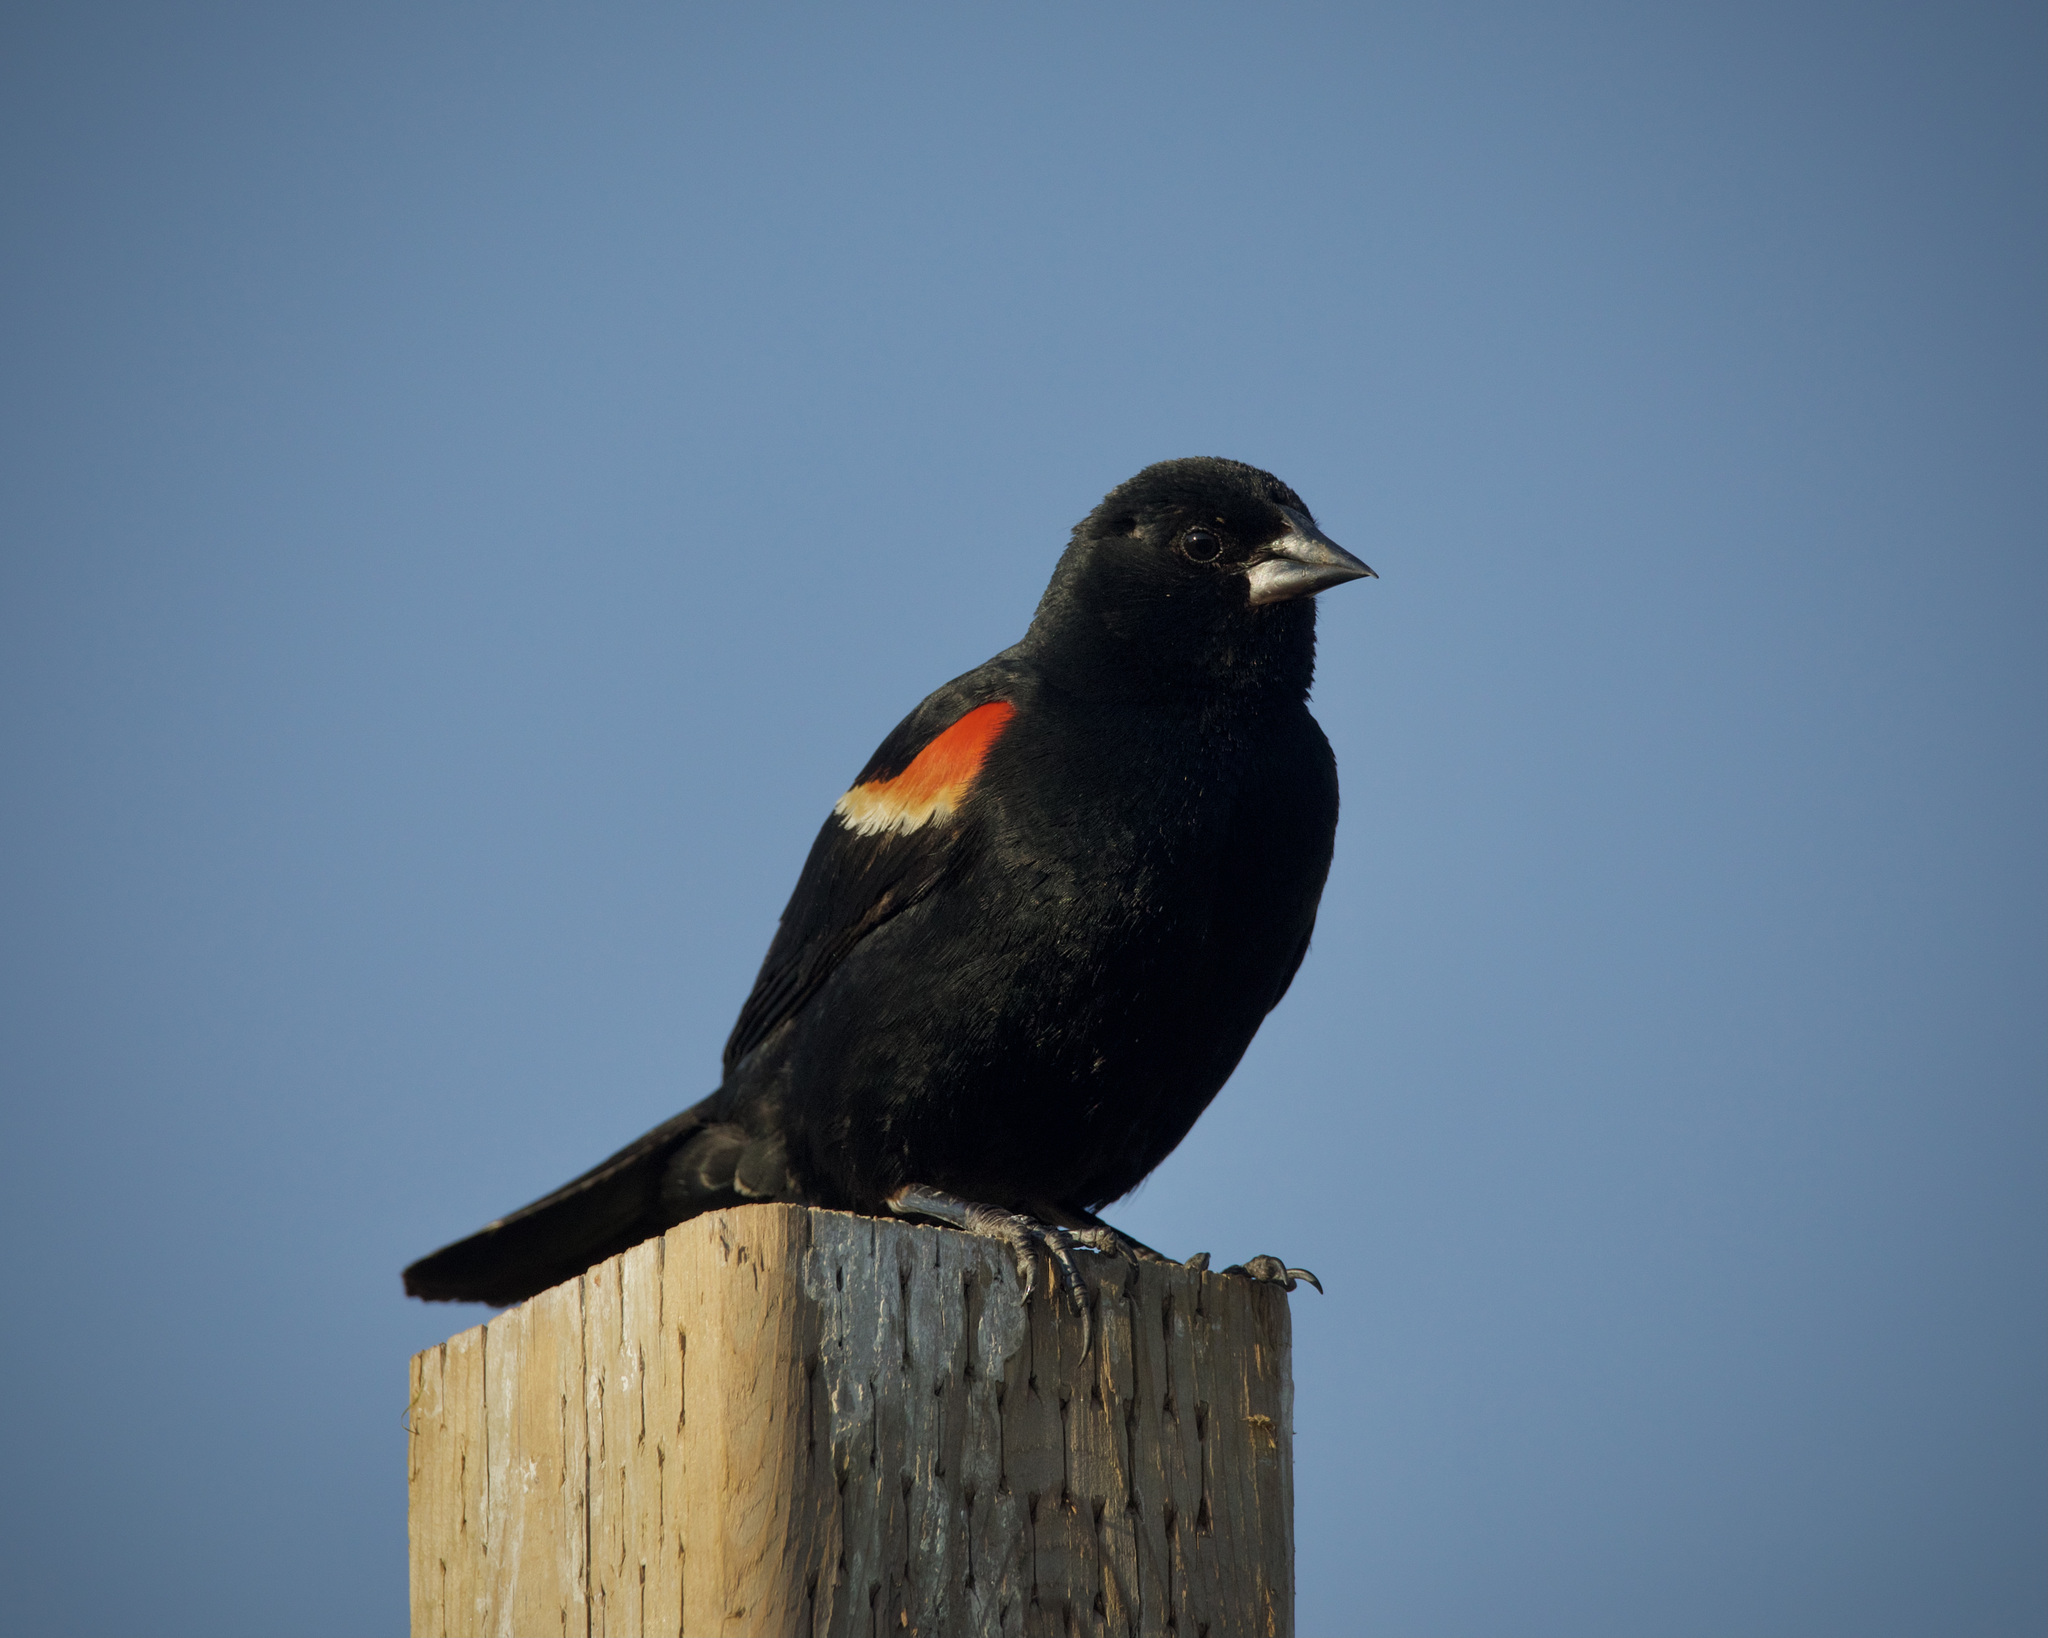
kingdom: Animalia
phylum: Chordata
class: Aves
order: Passeriformes
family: Icteridae
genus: Agelaius
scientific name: Agelaius phoeniceus
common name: Red-winged blackbird
